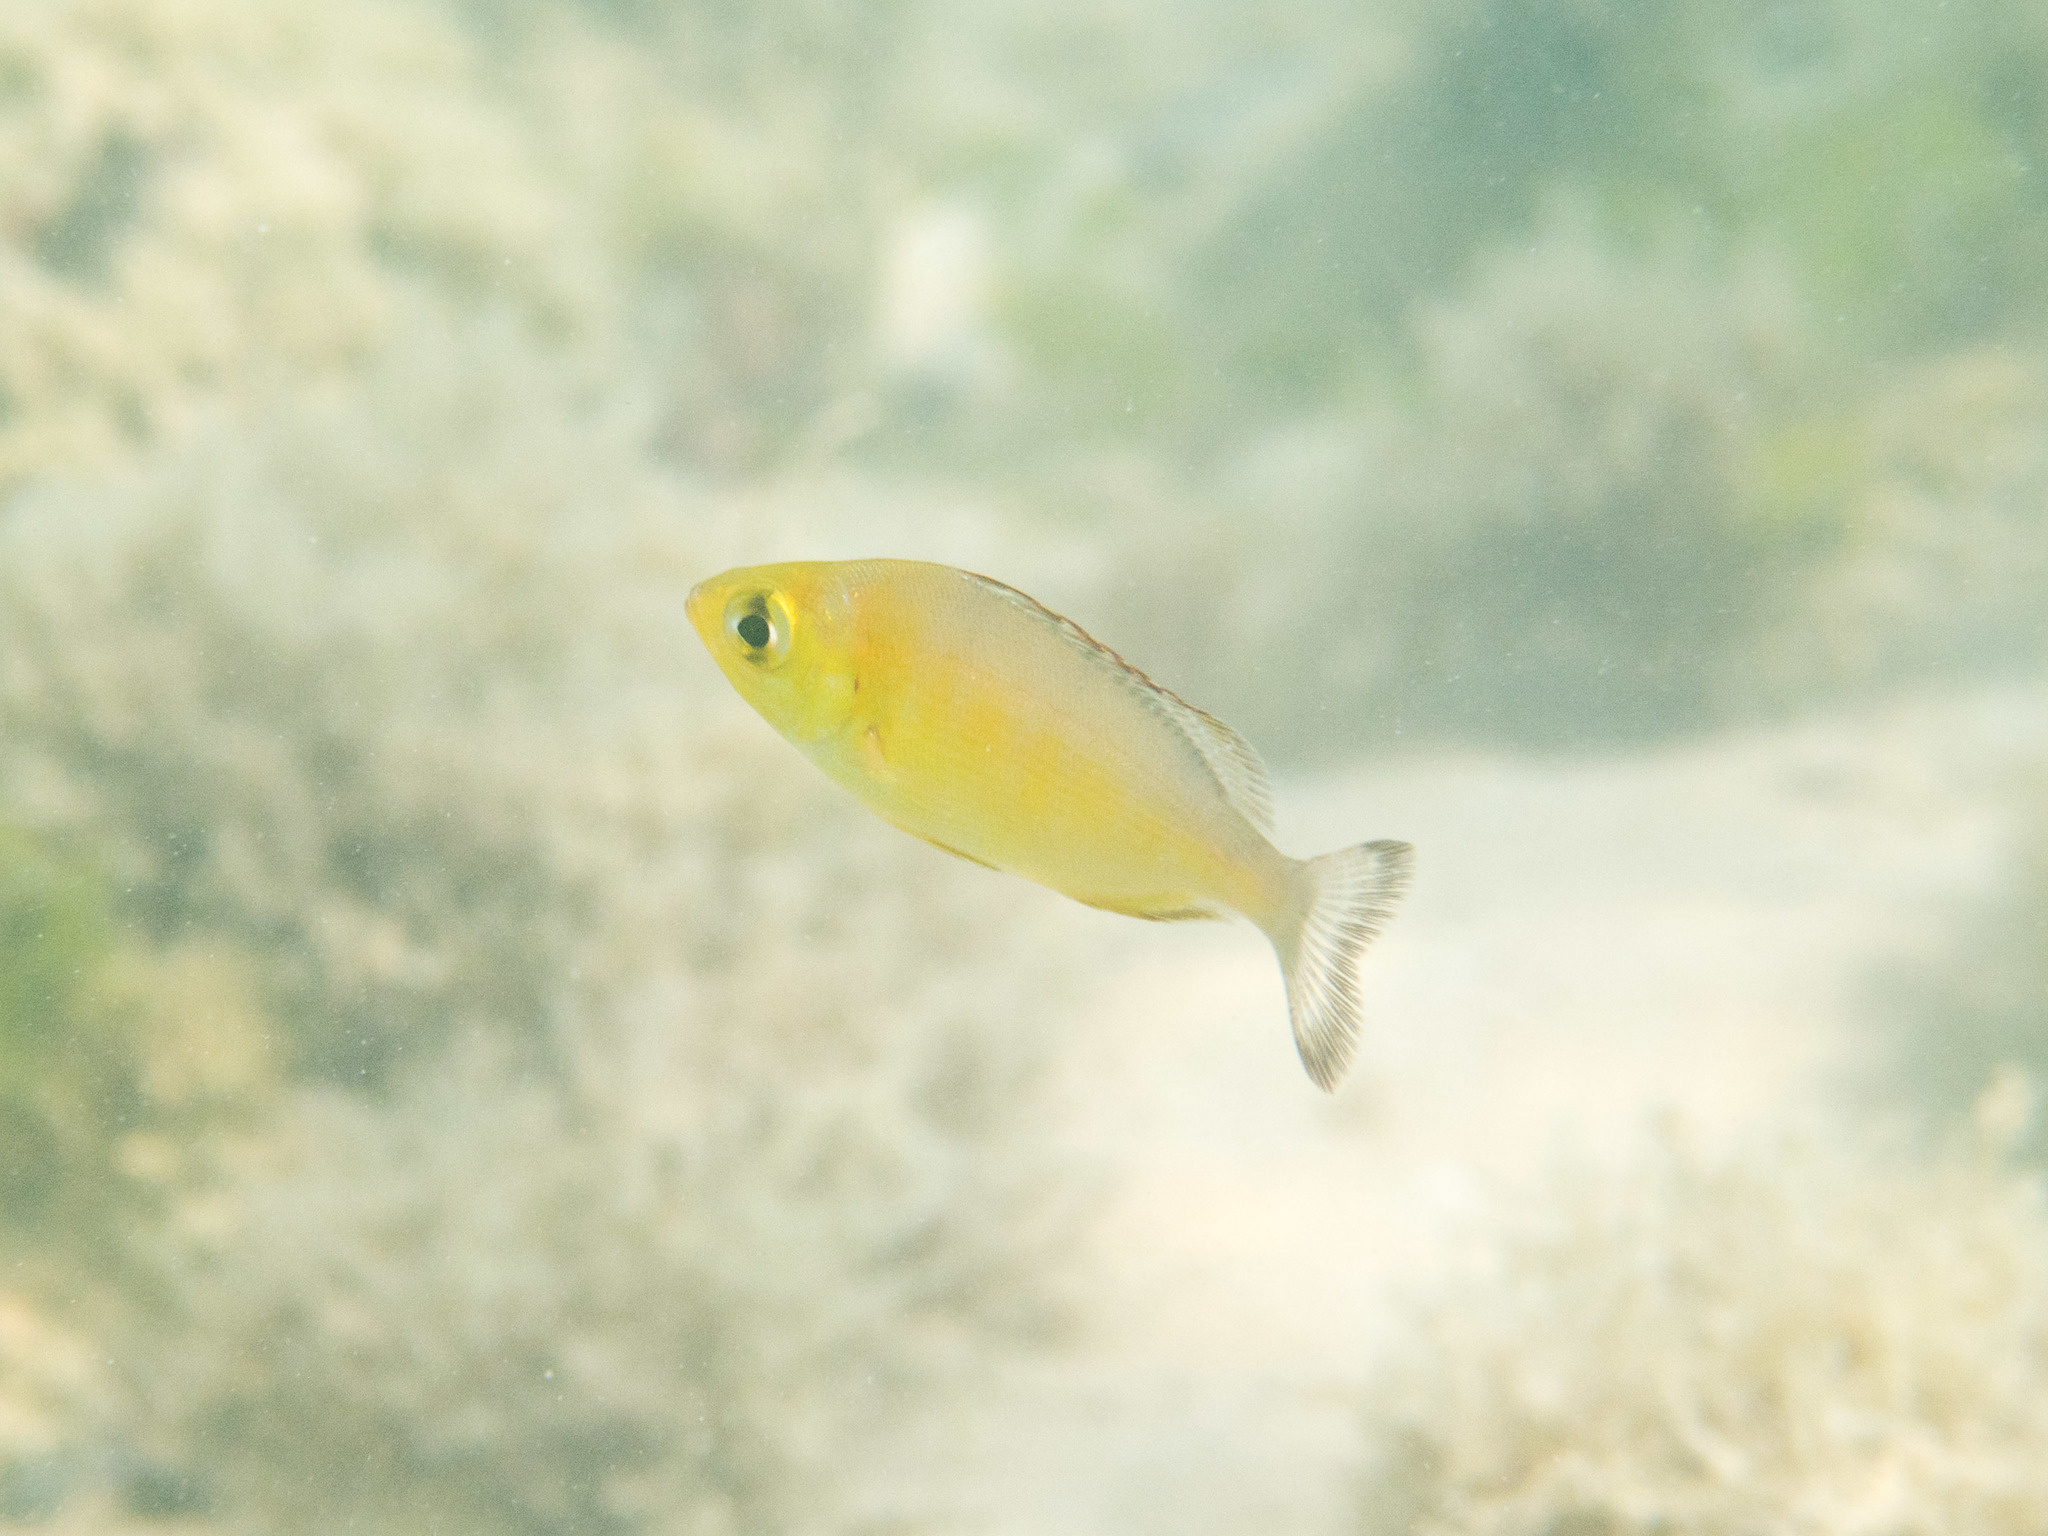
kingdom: Animalia
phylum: Chordata
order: Perciformes
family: Sparidae
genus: Spondyliosoma
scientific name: Spondyliosoma cantharus
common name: Black seabream
